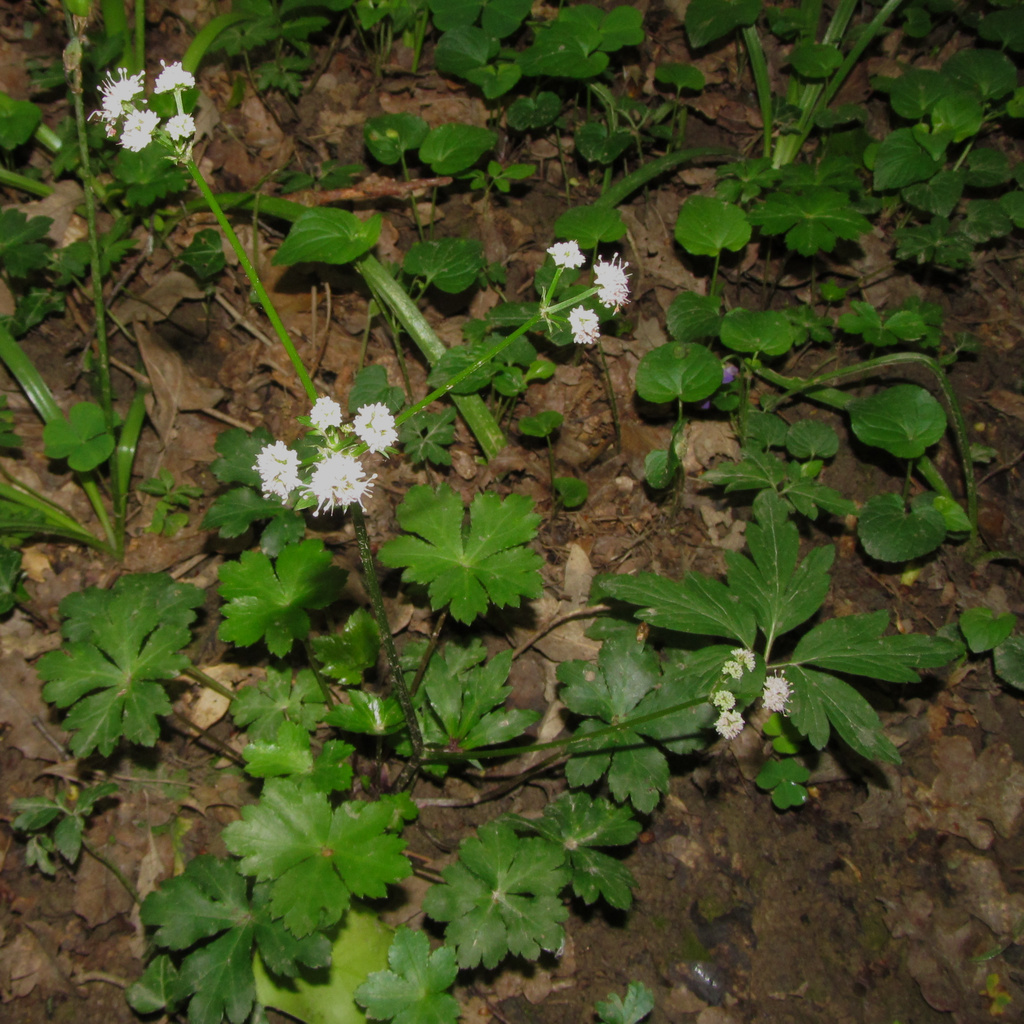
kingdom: Plantae
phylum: Tracheophyta
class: Magnoliopsida
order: Apiales
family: Apiaceae
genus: Sanicula
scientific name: Sanicula europaea
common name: Sanicle
